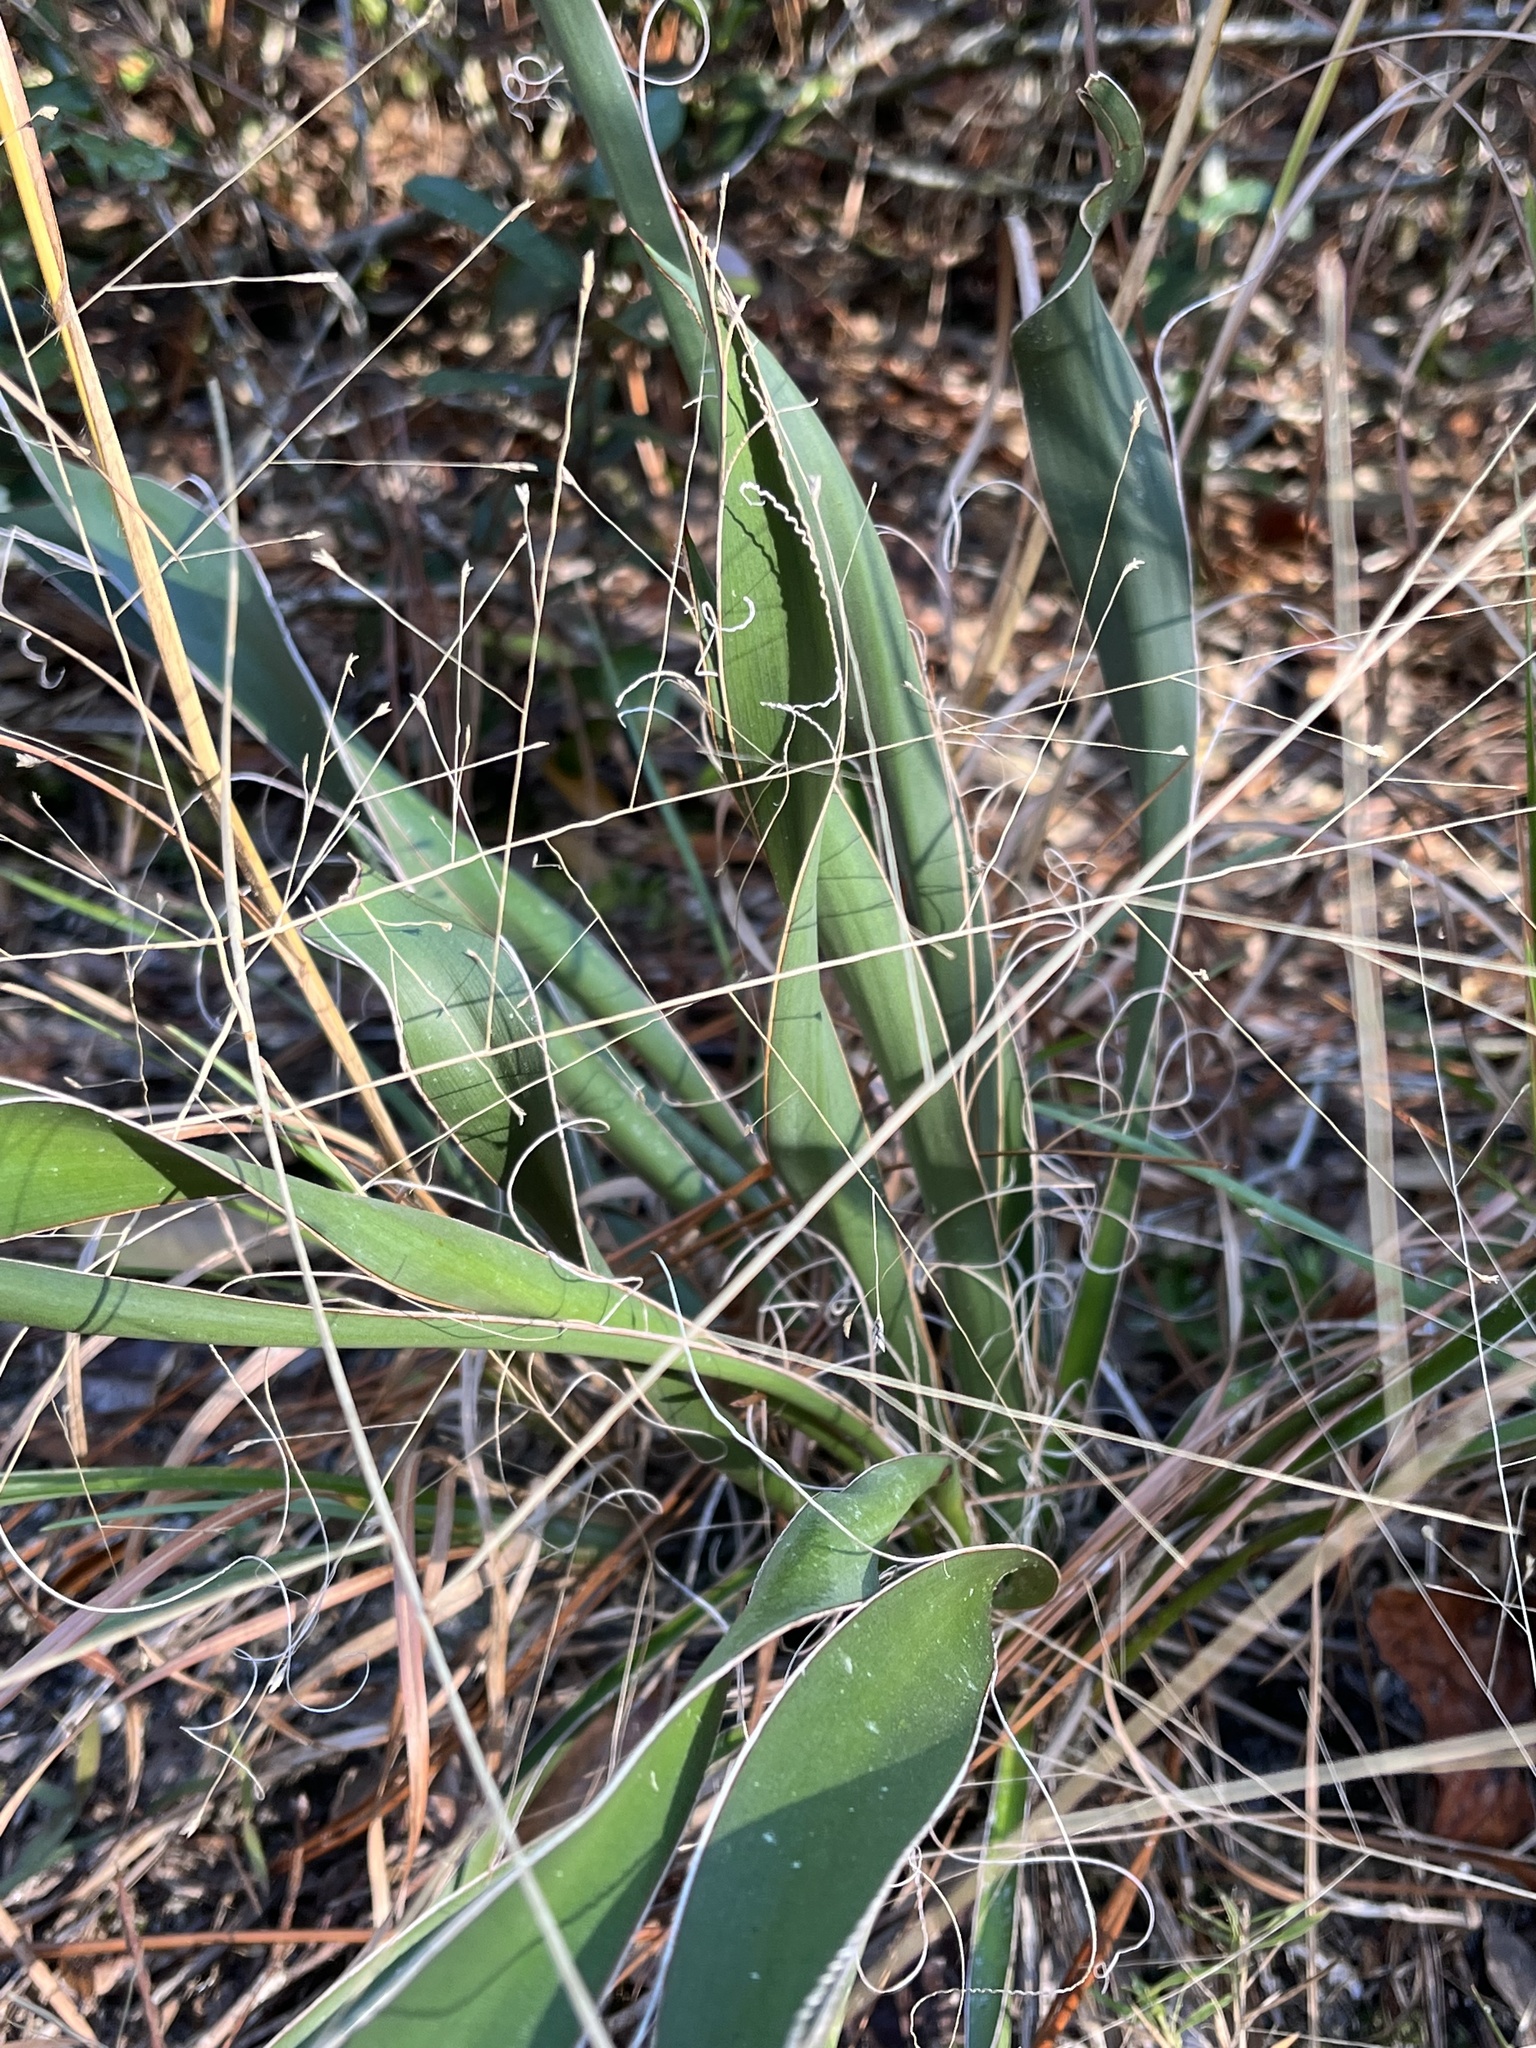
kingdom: Plantae
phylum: Tracheophyta
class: Liliopsida
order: Asparagales
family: Asparagaceae
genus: Yucca
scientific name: Yucca filamentosa
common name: Adam's-needle
